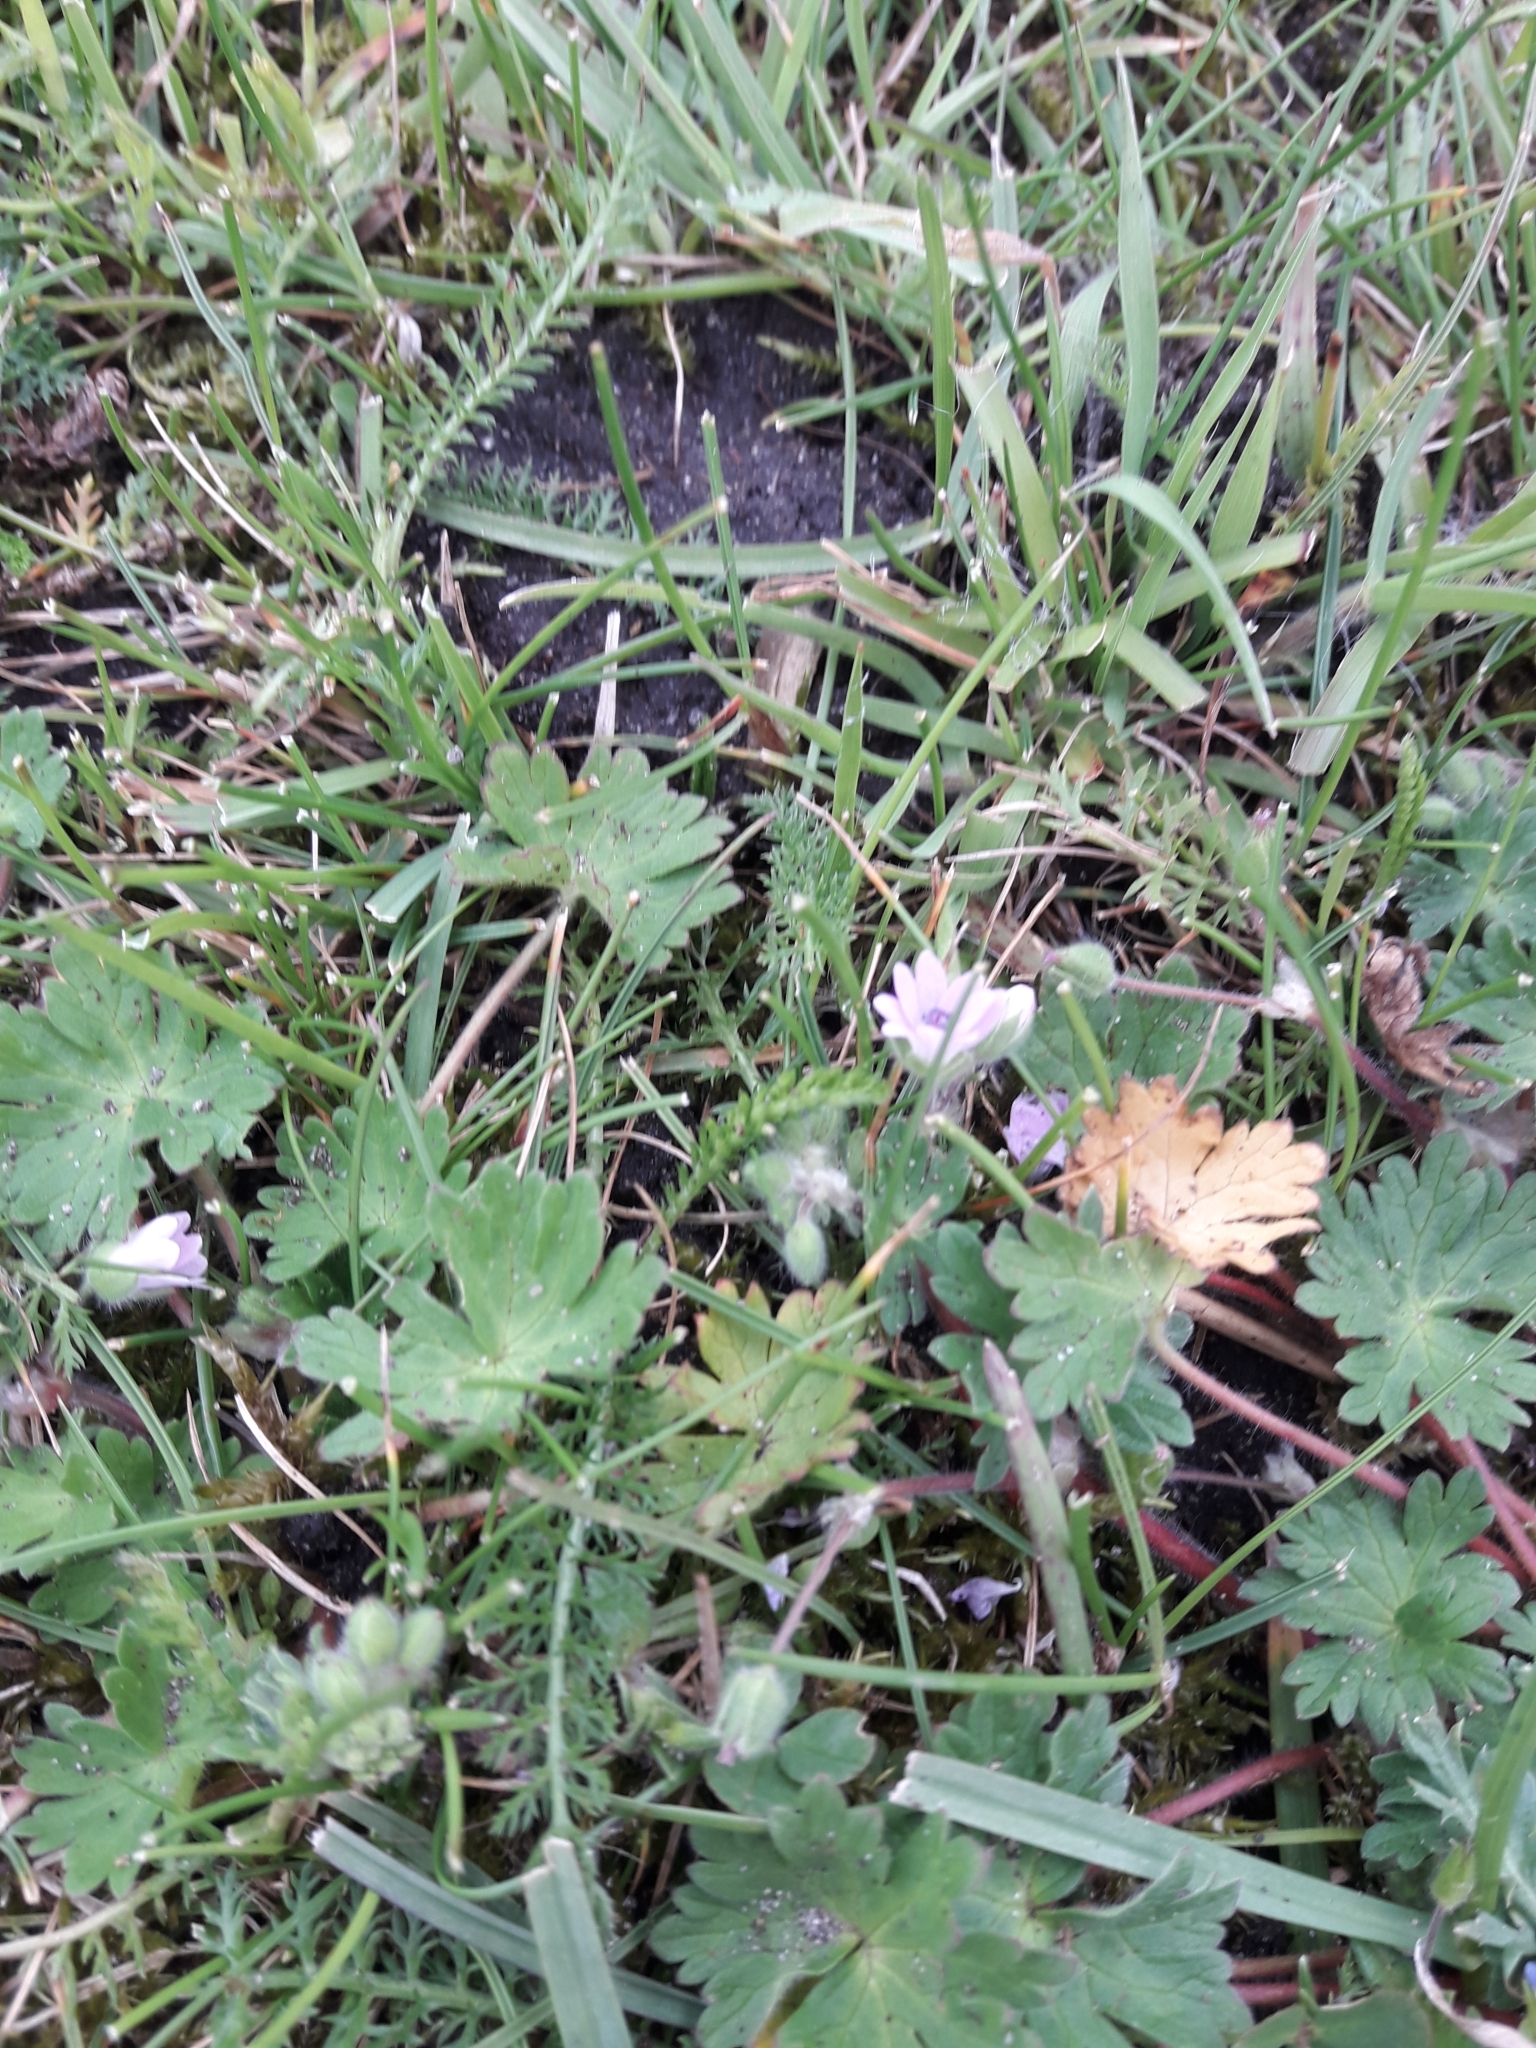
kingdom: Plantae
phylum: Tracheophyta
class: Magnoliopsida
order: Geraniales
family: Geraniaceae
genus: Geranium
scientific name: Geranium molle
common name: Dove's-foot crane's-bill
